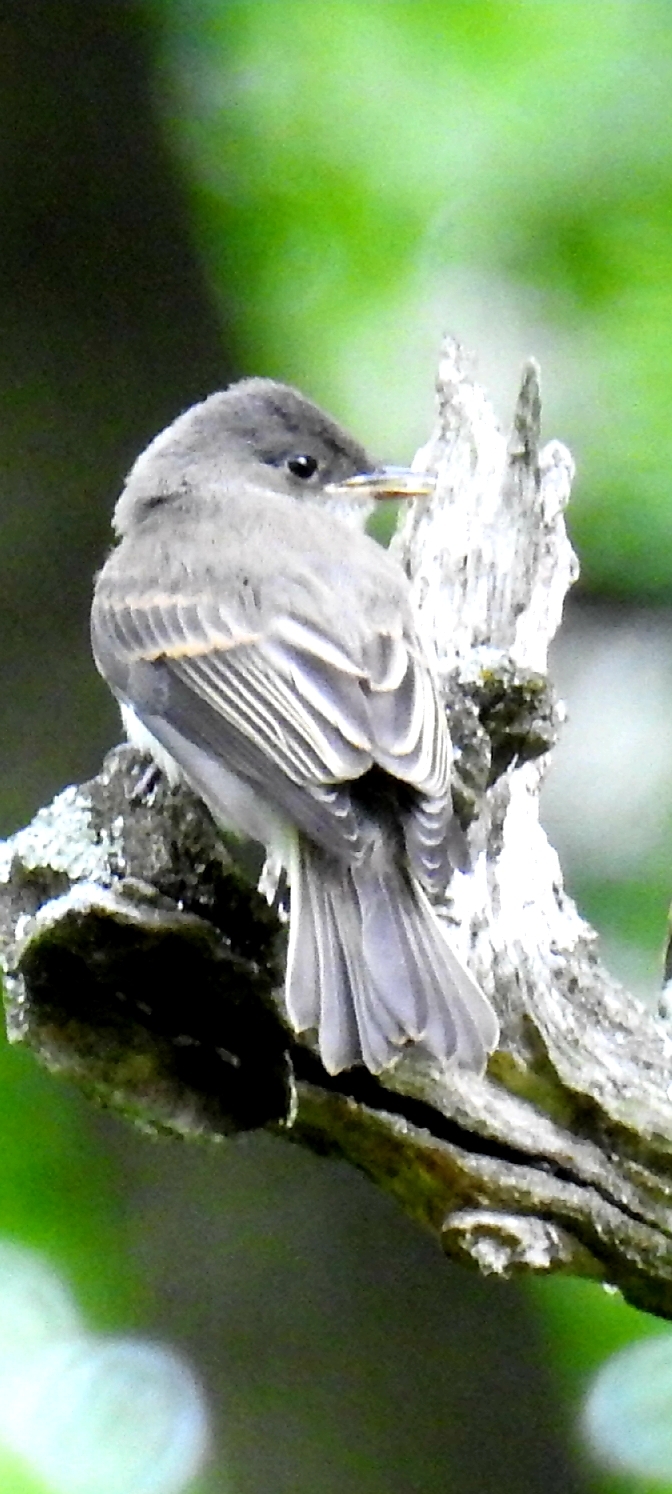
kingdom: Animalia
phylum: Chordata
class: Aves
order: Passeriformes
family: Tyrannidae
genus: Contopus
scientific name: Contopus virens
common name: Eastern wood-pewee
